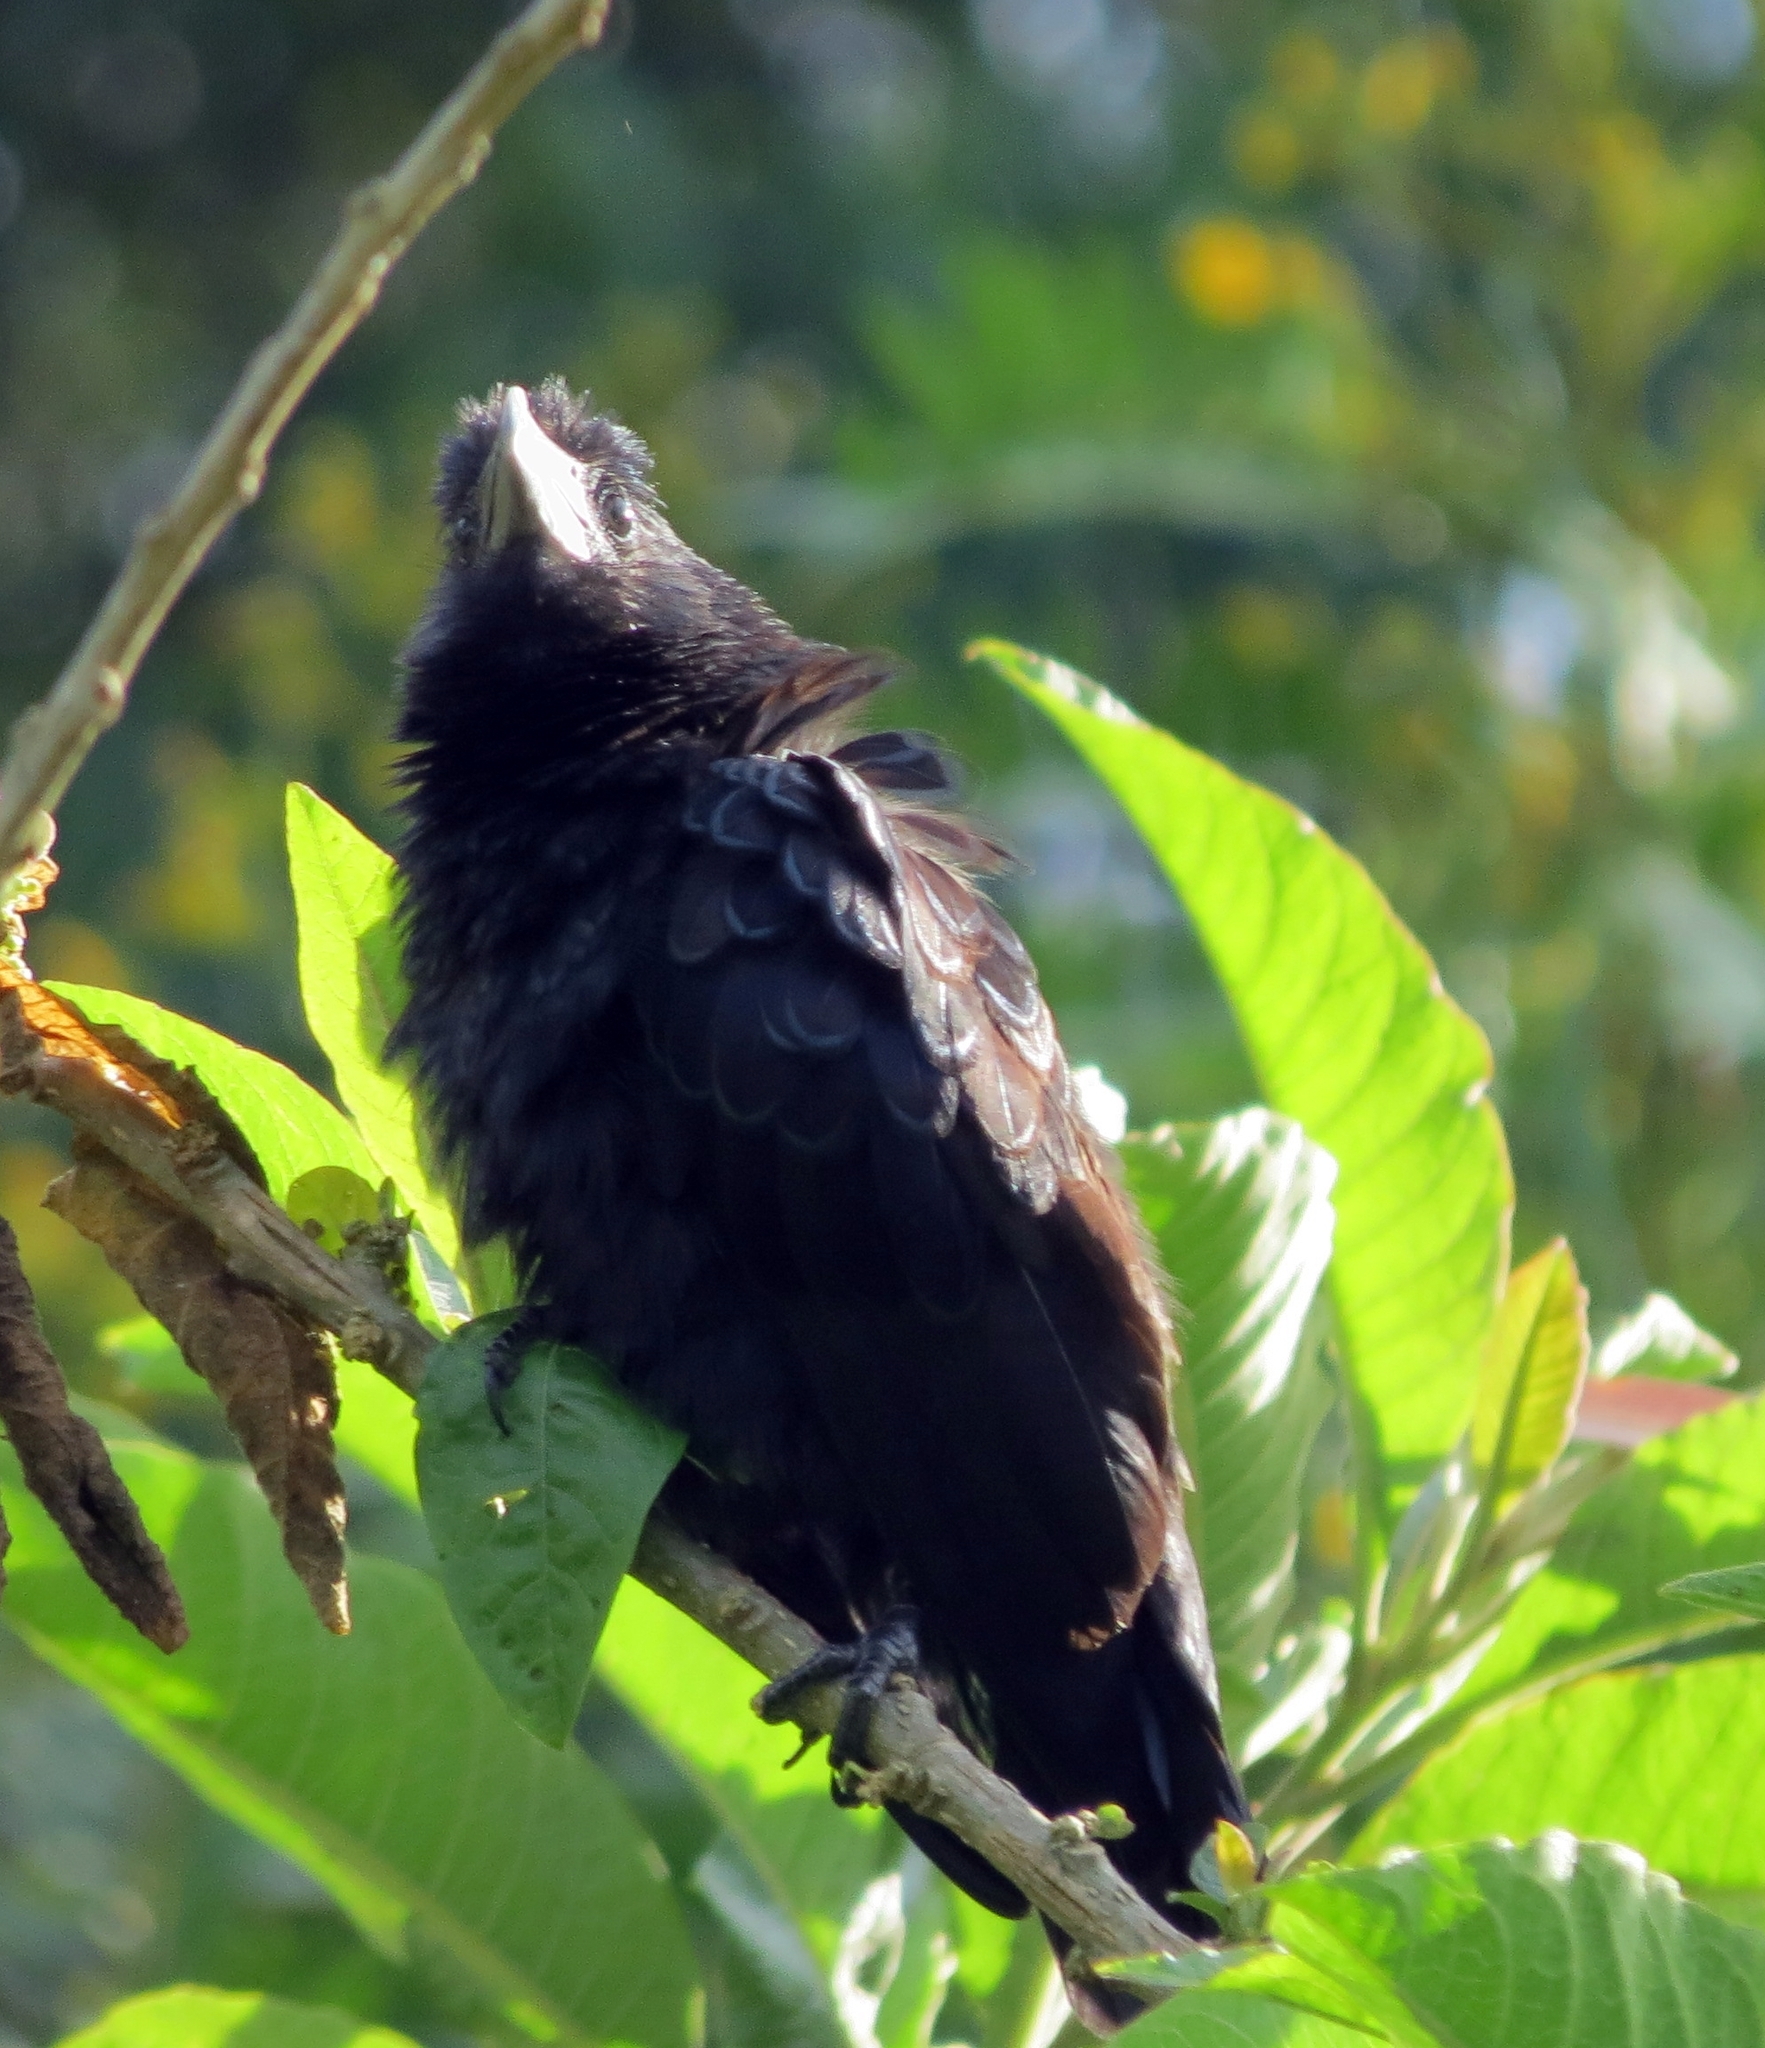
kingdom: Animalia
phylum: Chordata
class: Aves
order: Cuculiformes
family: Cuculidae
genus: Crotophaga
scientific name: Crotophaga ani
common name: Smooth-billed ani
